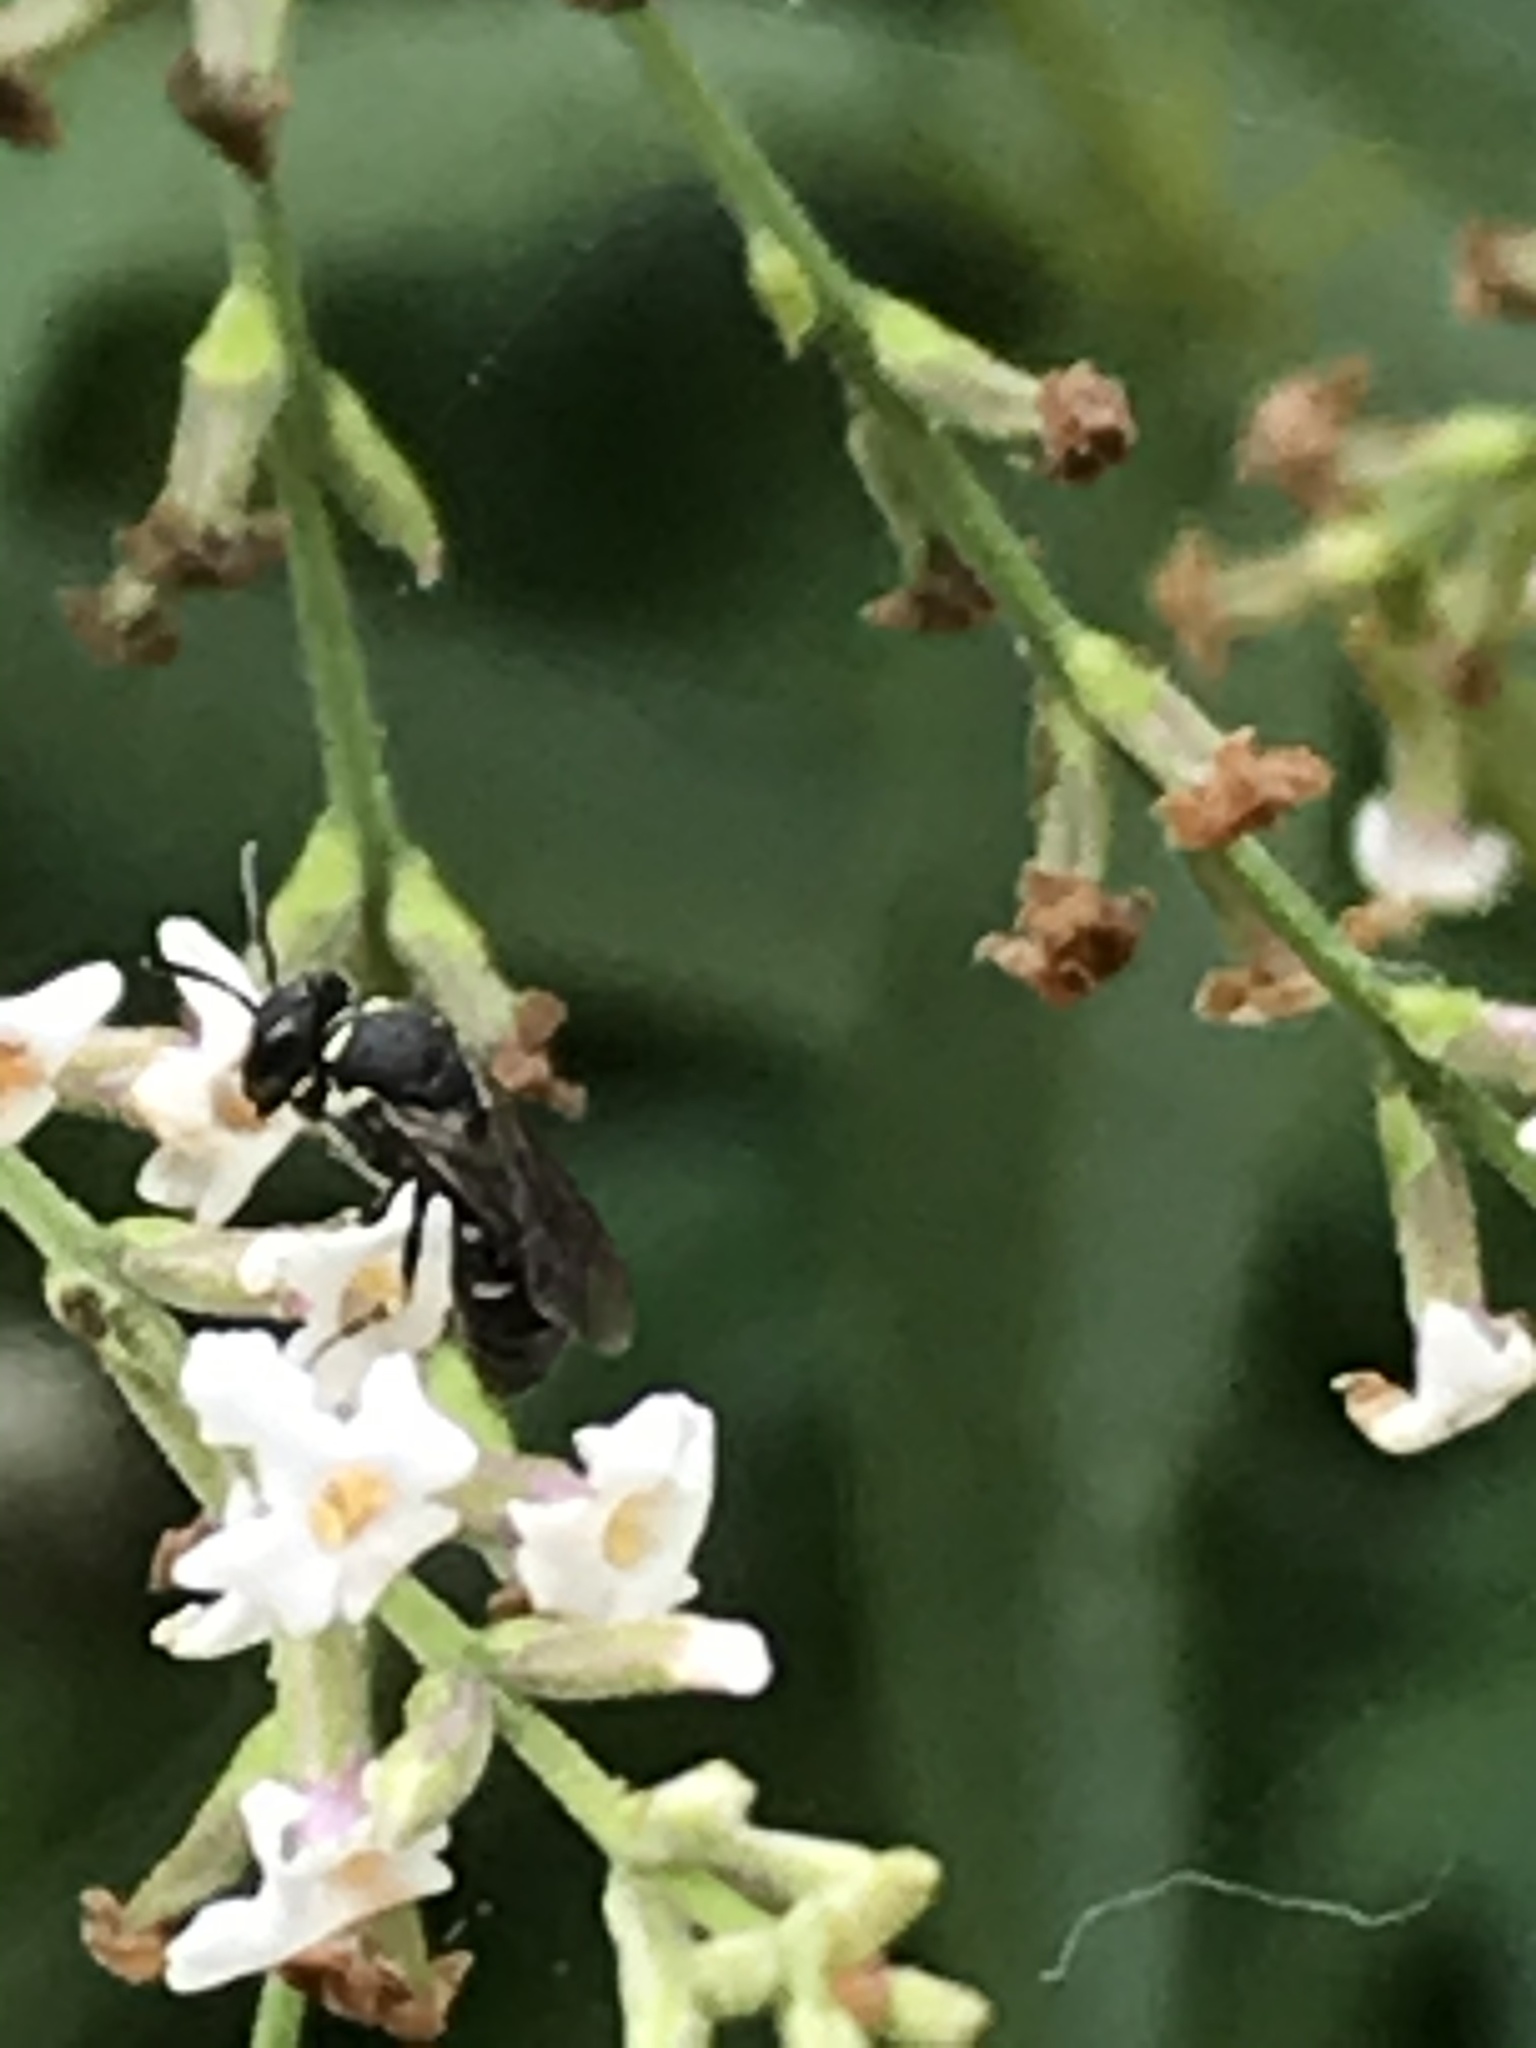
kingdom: Animalia
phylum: Arthropoda
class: Insecta
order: Hymenoptera
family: Colletidae
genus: Hylaeus
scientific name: Hylaeus
